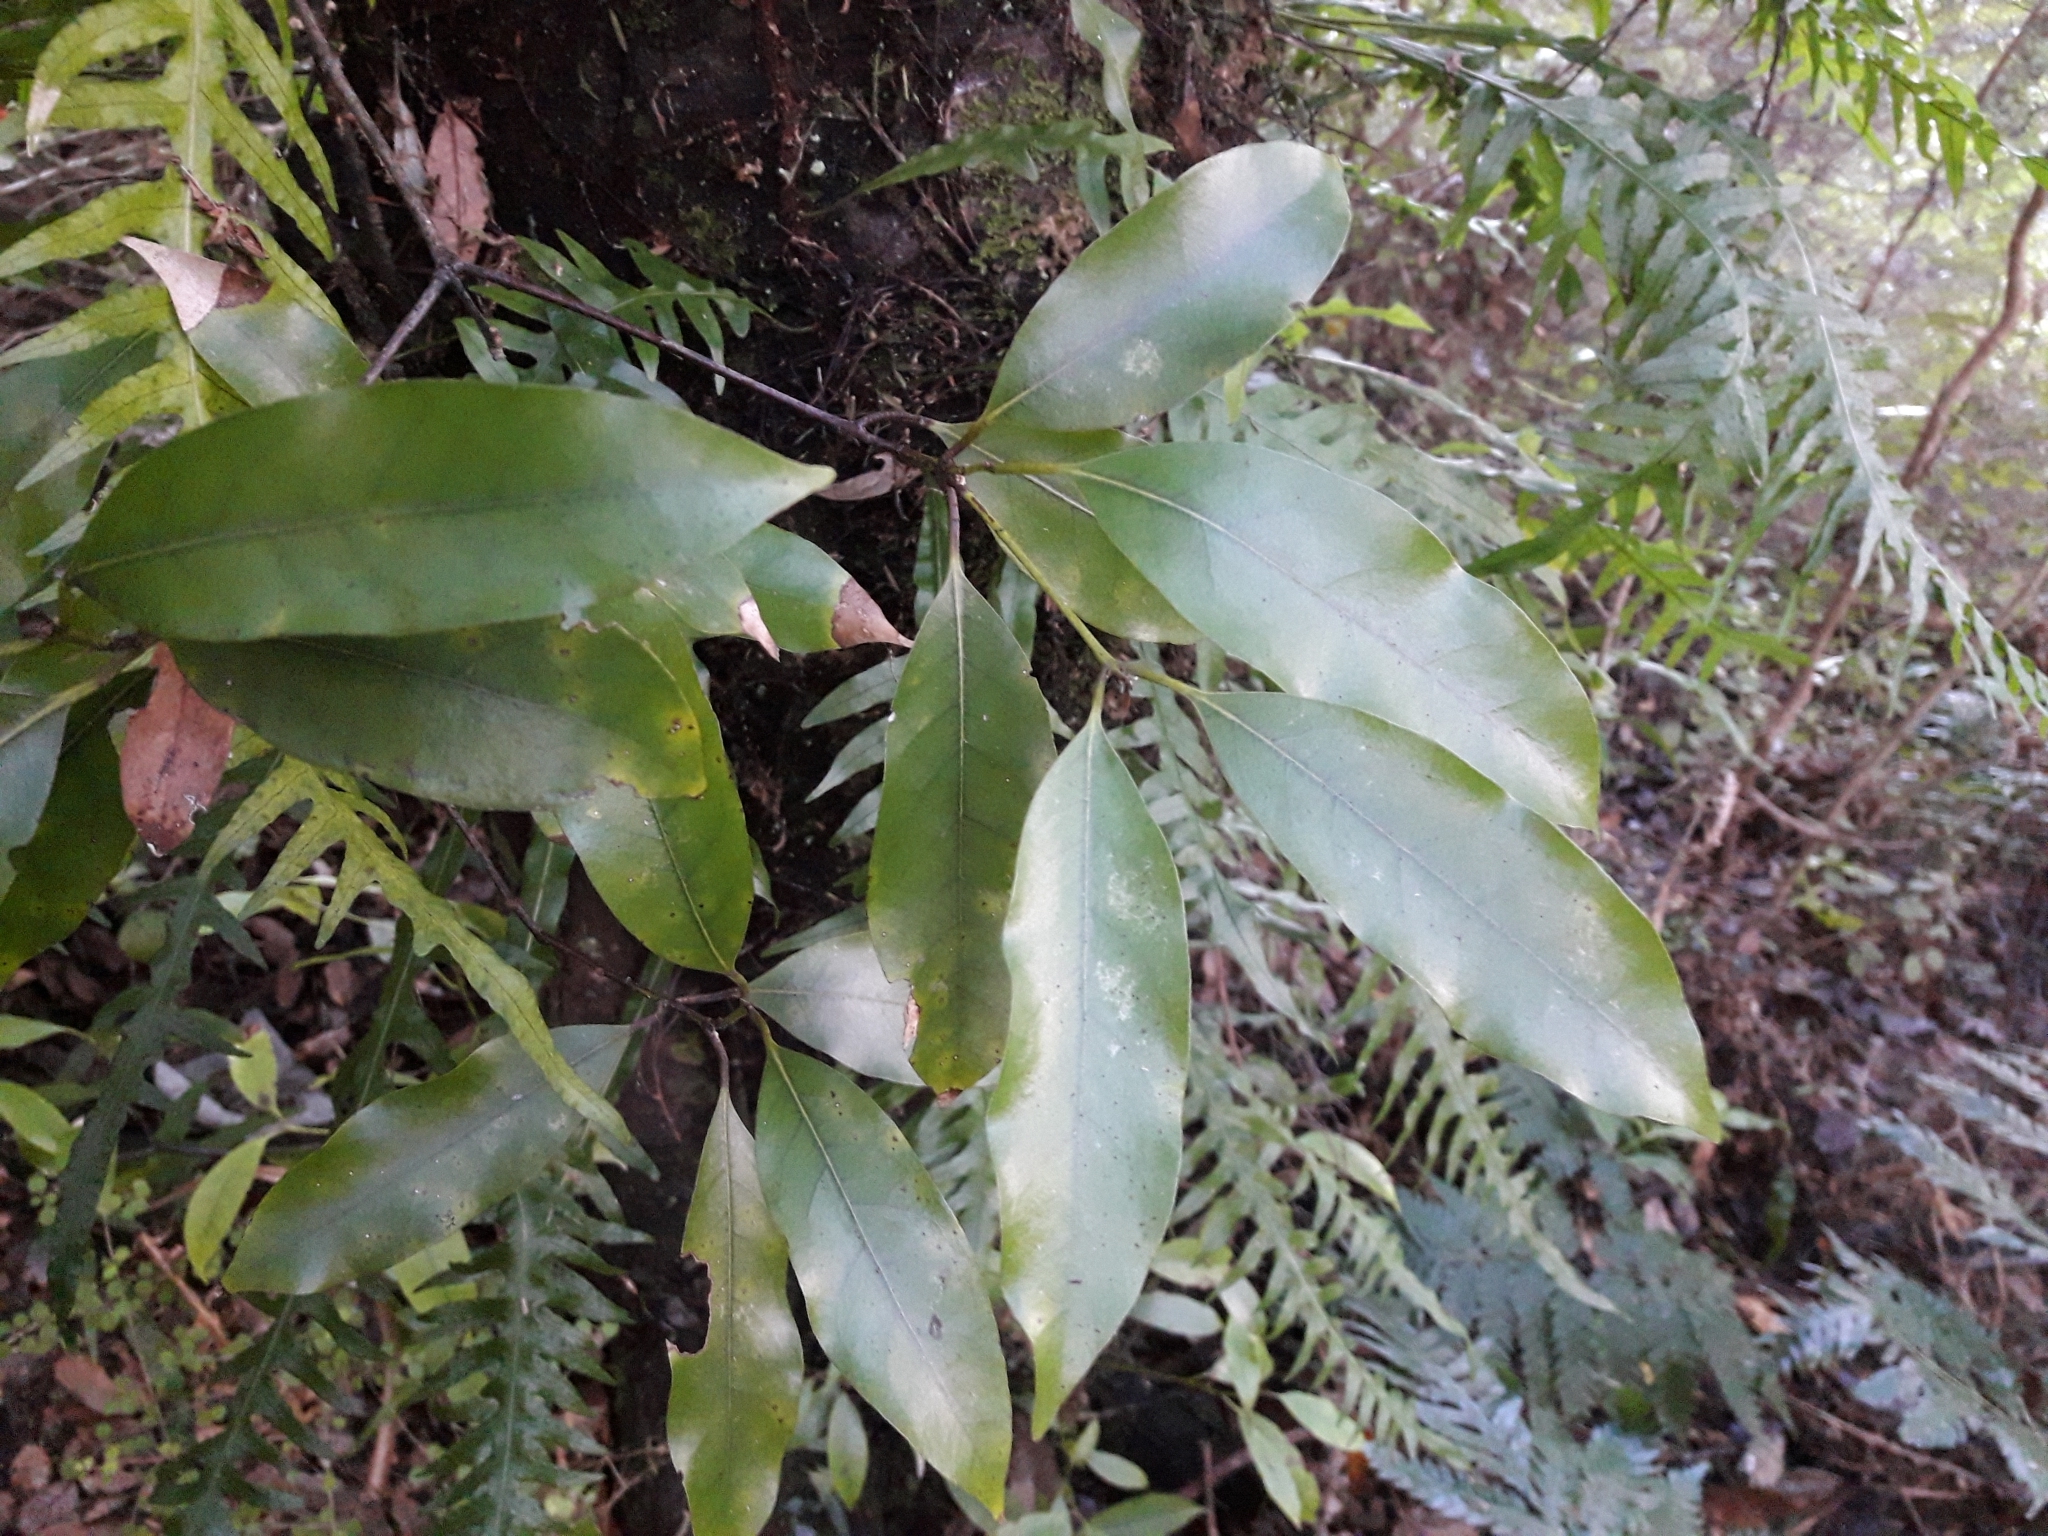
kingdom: Plantae
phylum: Tracheophyta
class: Magnoliopsida
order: Laurales
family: Lauraceae
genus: Beilschmiedia
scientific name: Beilschmiedia tawa
